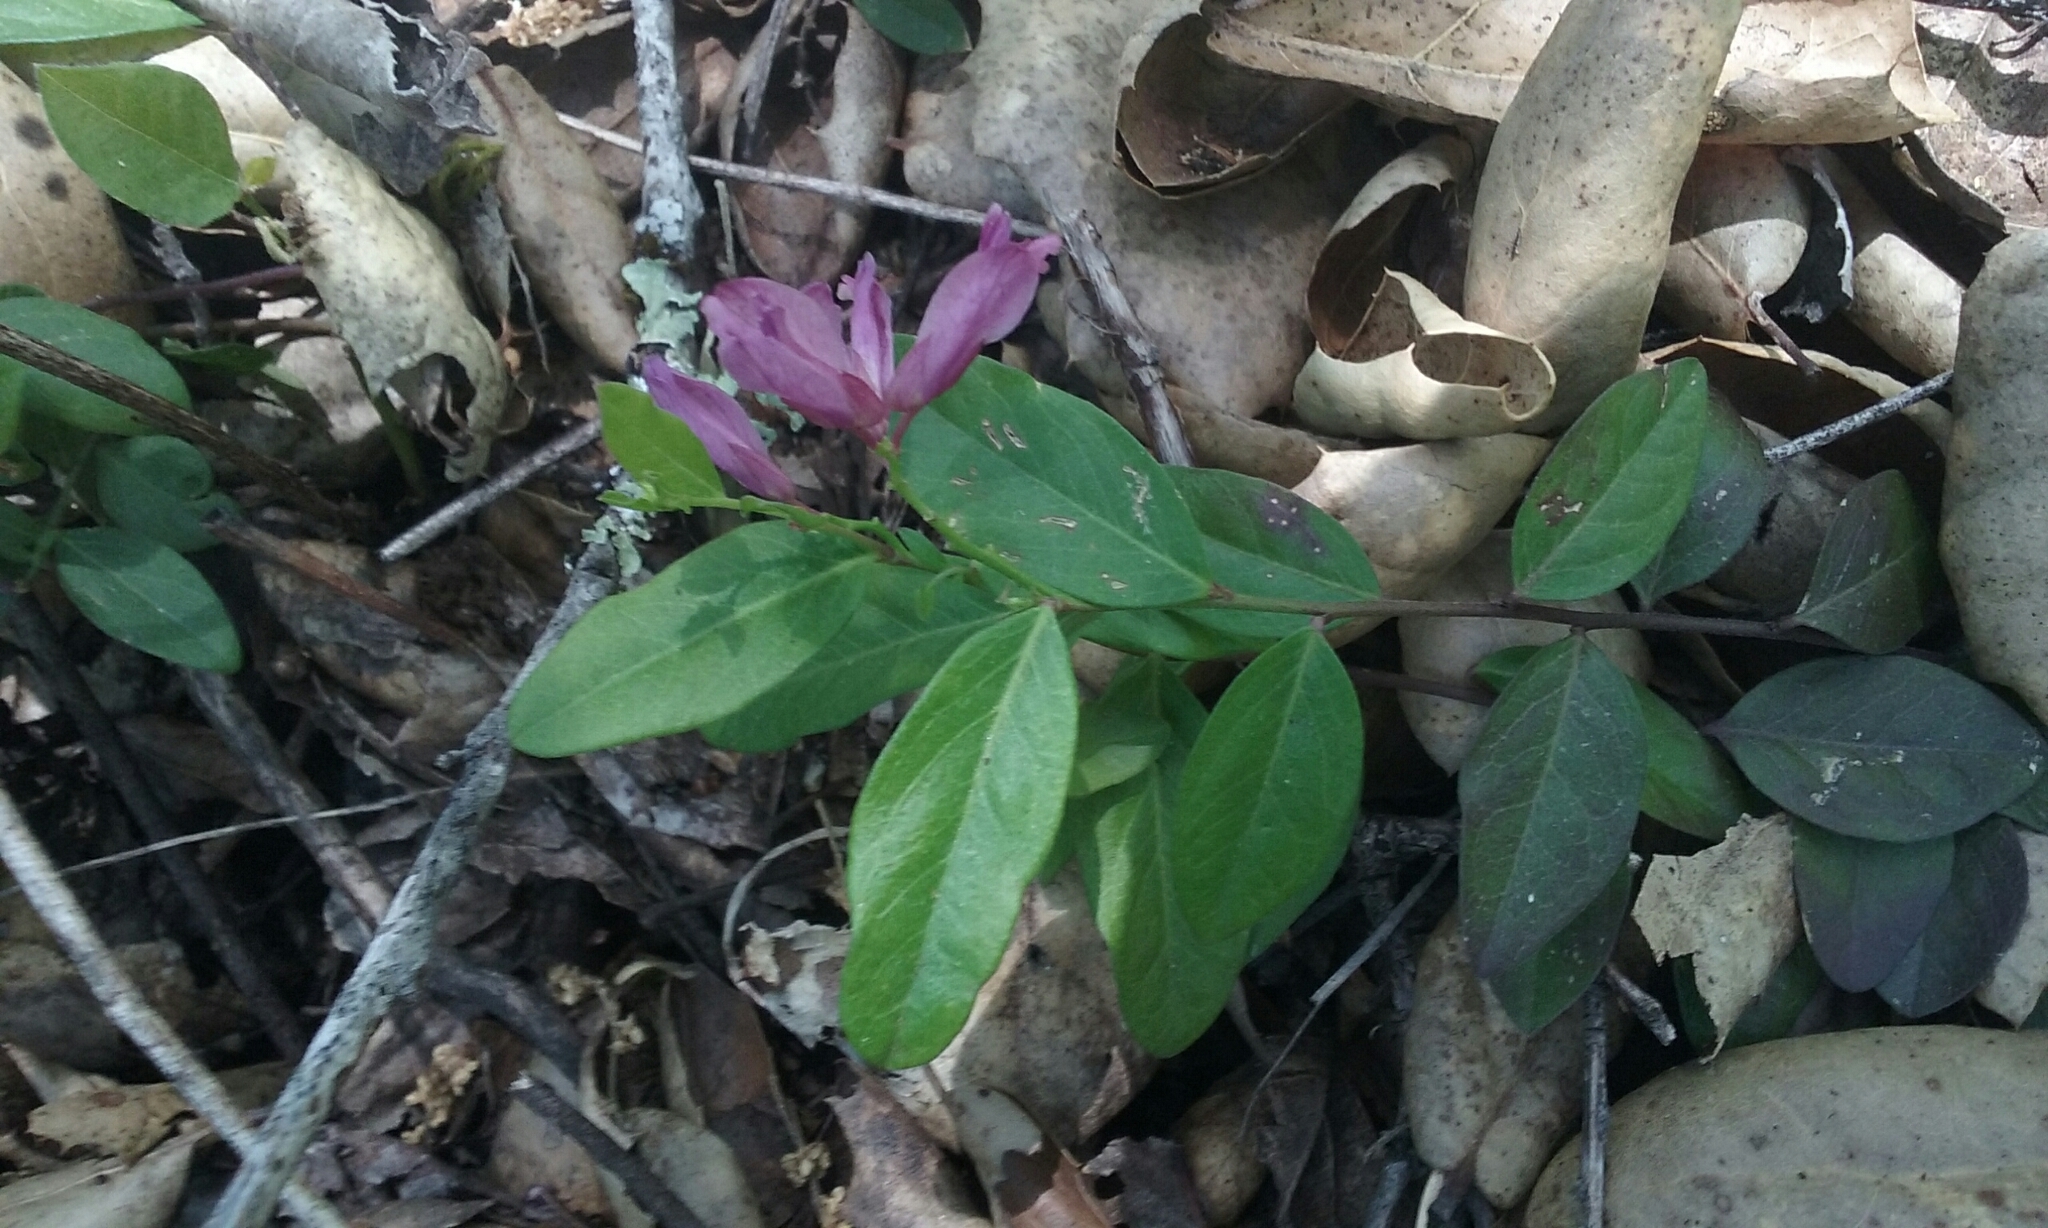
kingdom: Plantae
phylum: Tracheophyta
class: Magnoliopsida
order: Fabales
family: Polygalaceae
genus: Rhinotropis
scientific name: Rhinotropis californica
